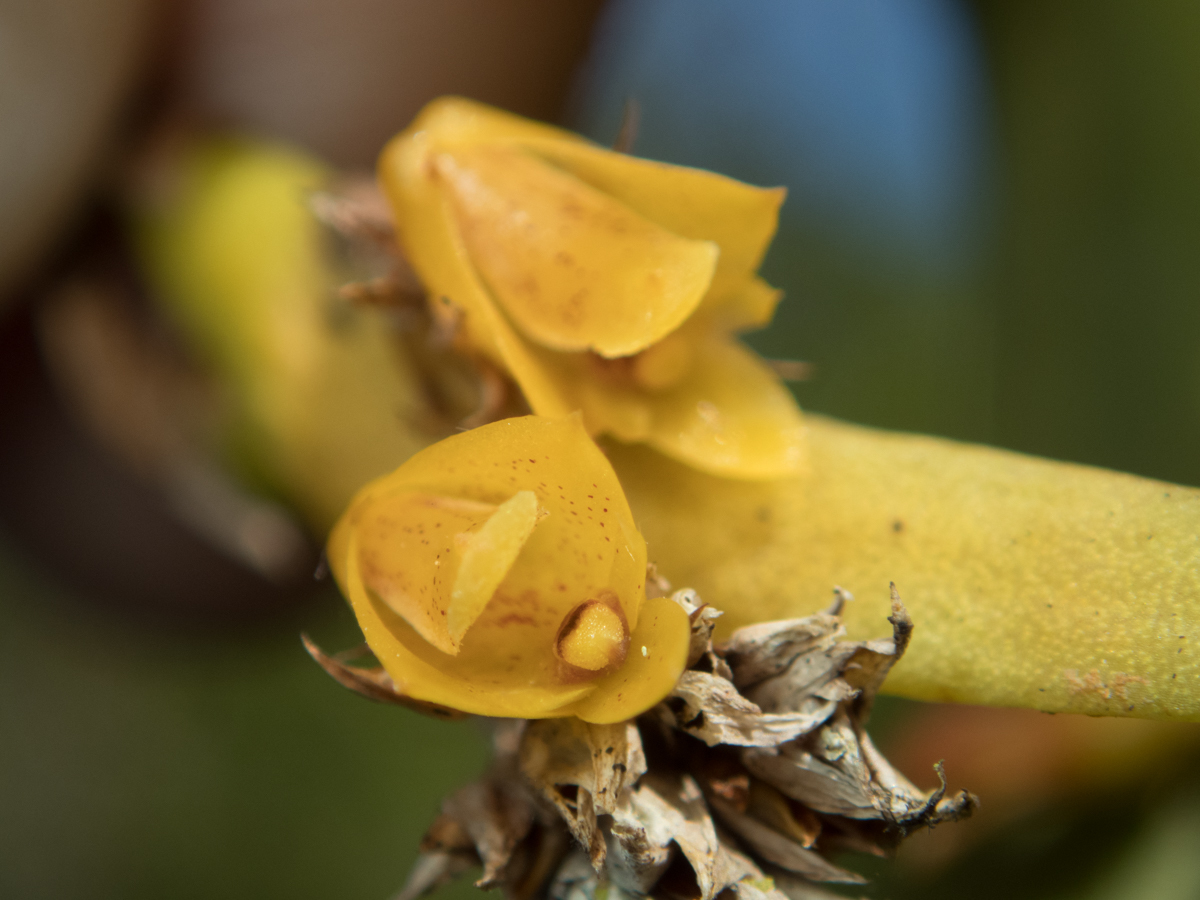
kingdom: Plantae
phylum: Tracheophyta
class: Liliopsida
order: Asparagales
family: Orchidaceae
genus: Oxystophyllum
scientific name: Oxystophyllum carnosum
